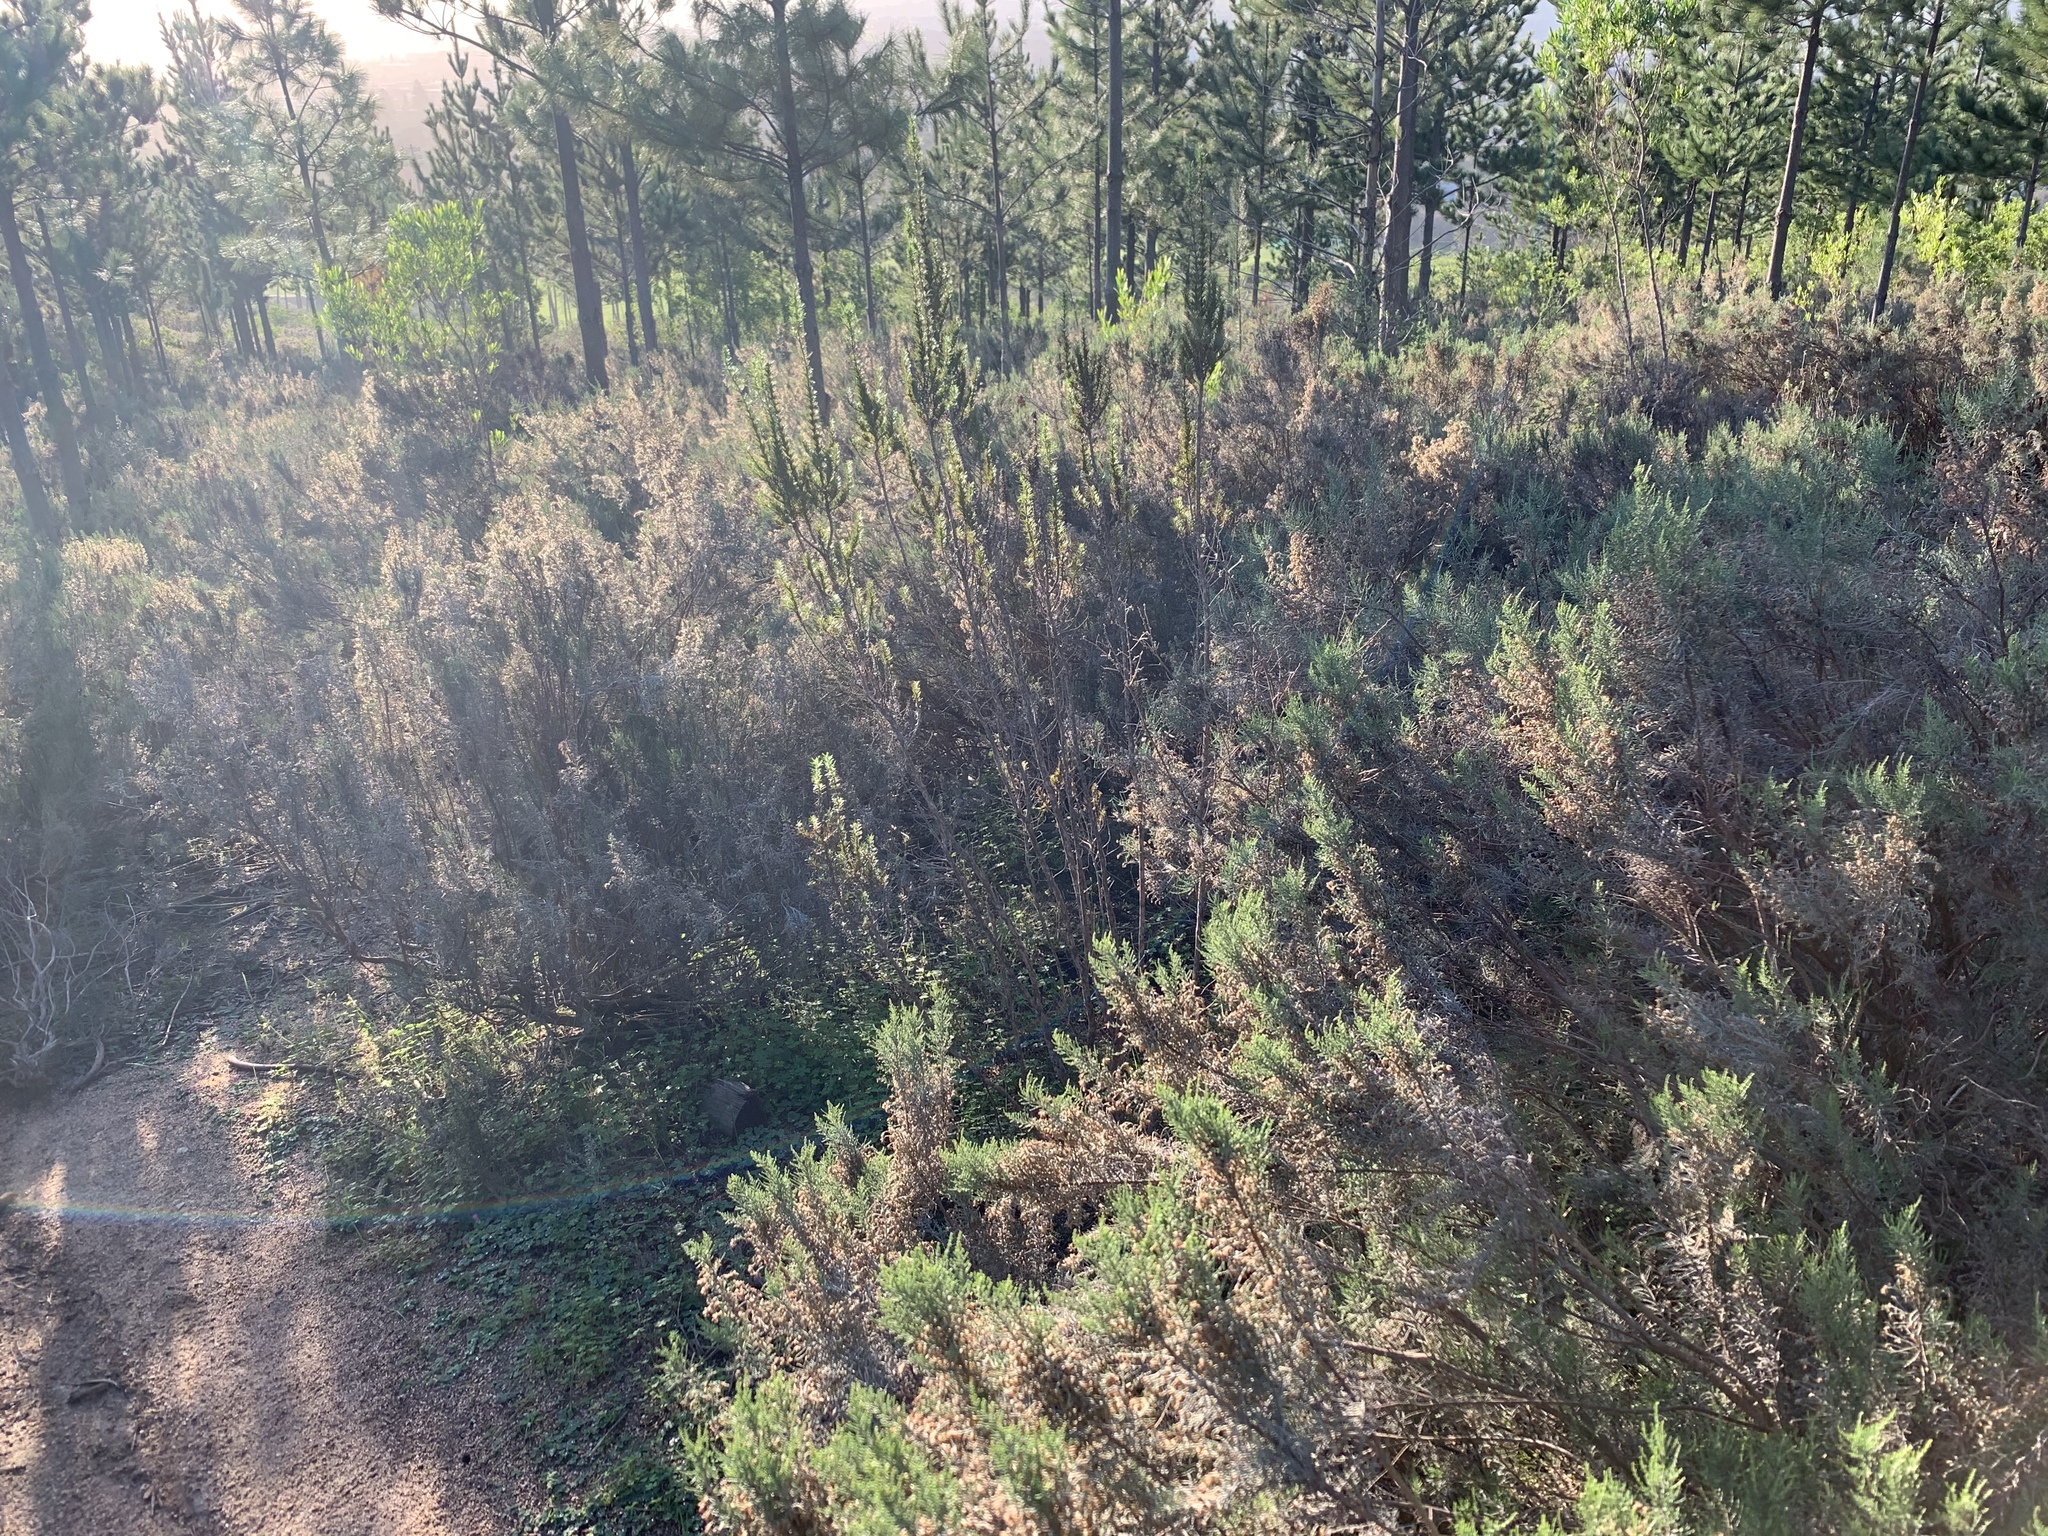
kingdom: Plantae
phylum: Tracheophyta
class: Magnoliopsida
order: Asterales
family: Asteraceae
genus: Dicerothamnus
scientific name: Dicerothamnus rhinocerotis
